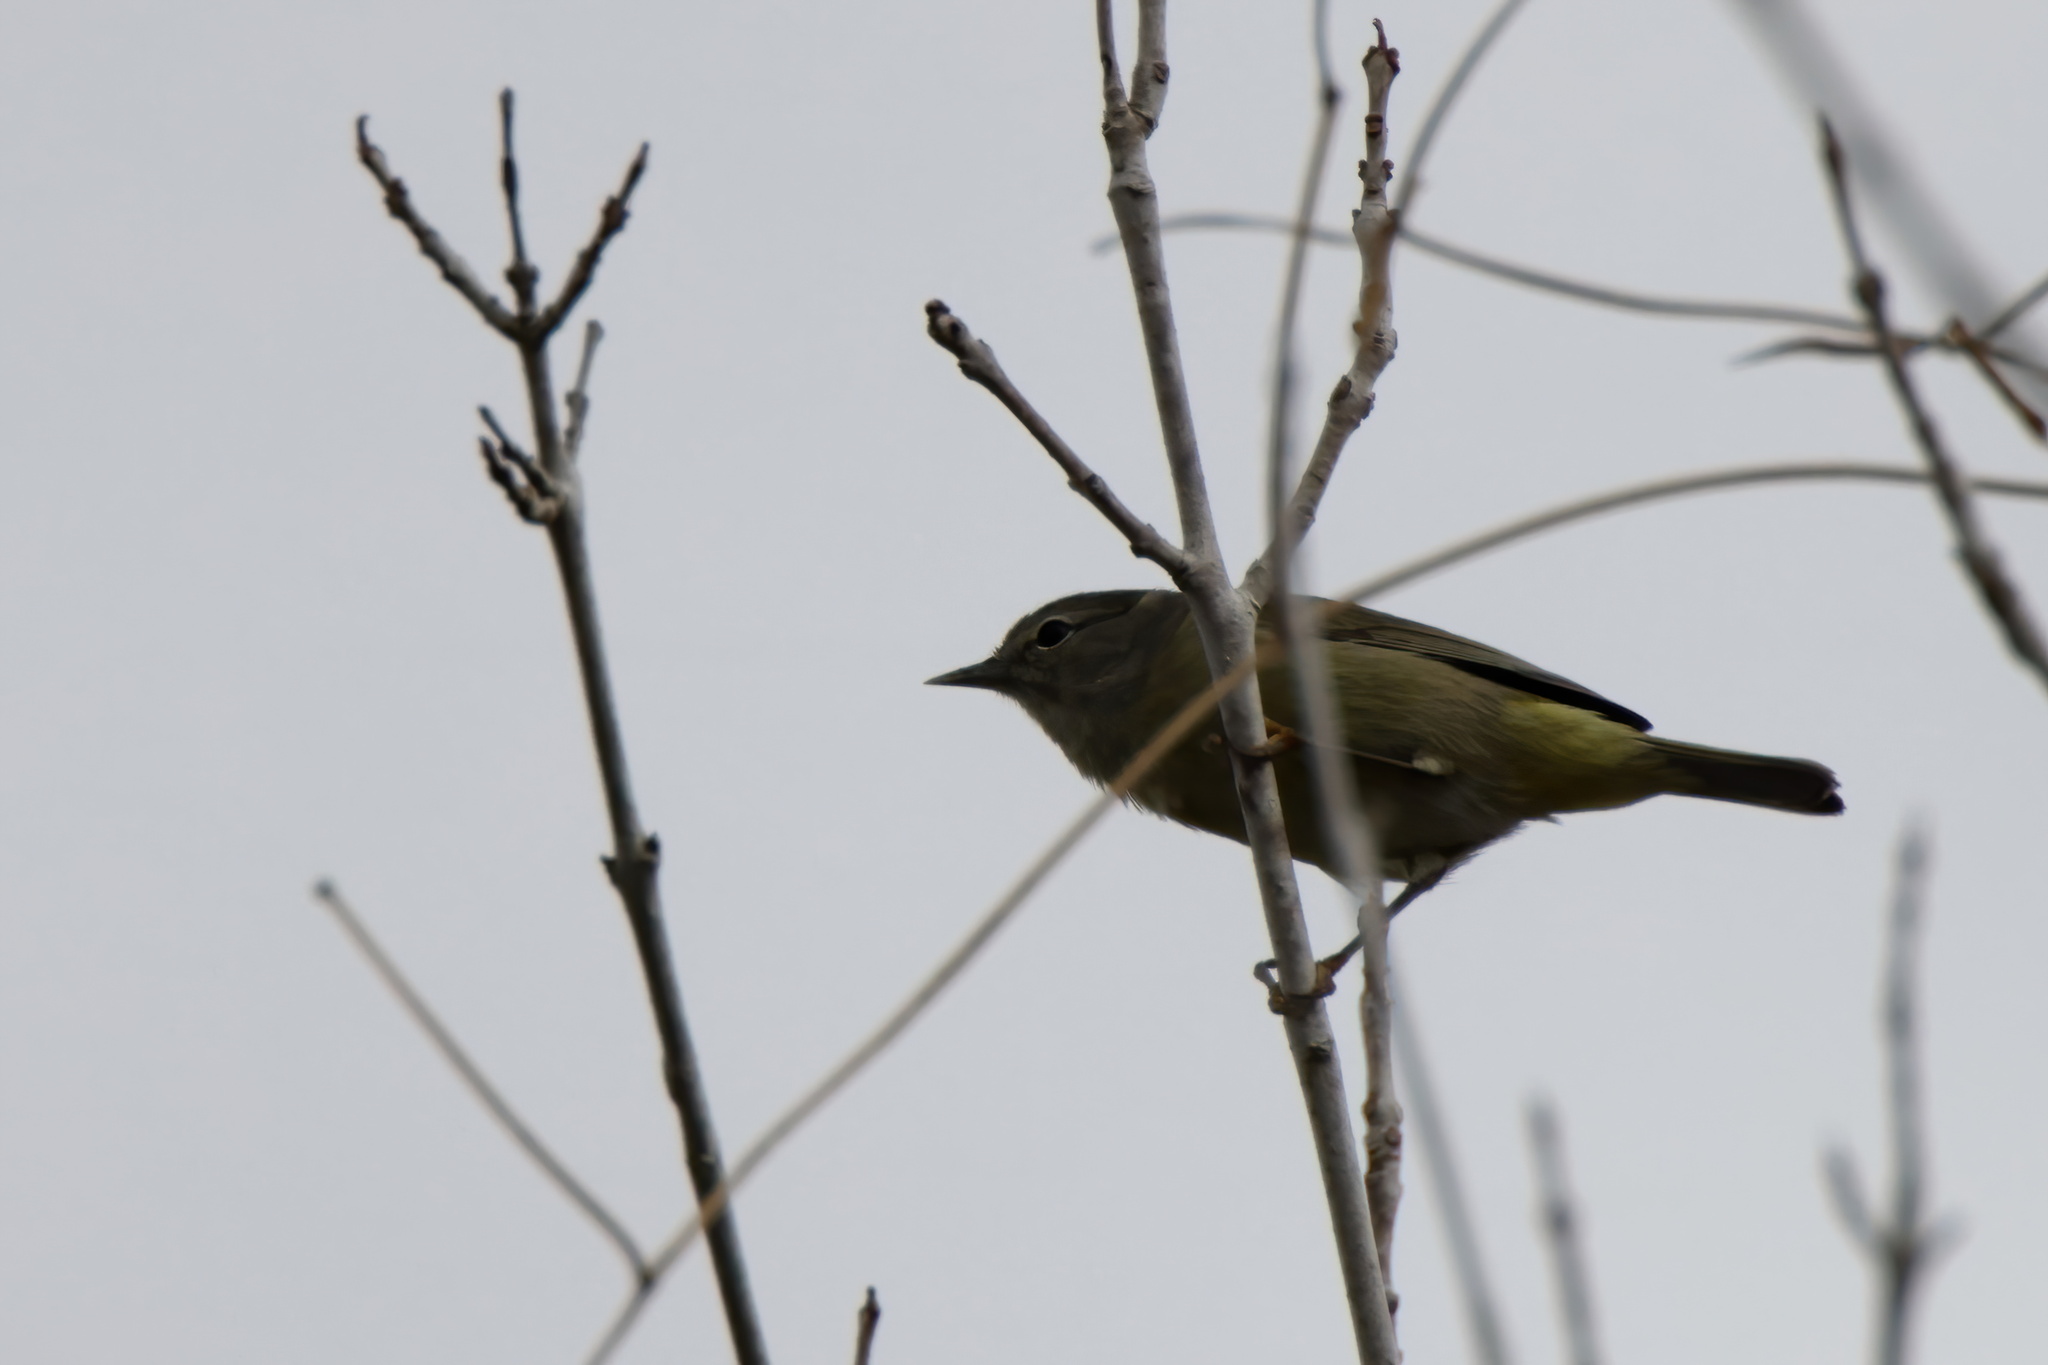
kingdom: Animalia
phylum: Chordata
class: Aves
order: Passeriformes
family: Parulidae
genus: Leiothlypis
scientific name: Leiothlypis celata
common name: Orange-crowned warbler
